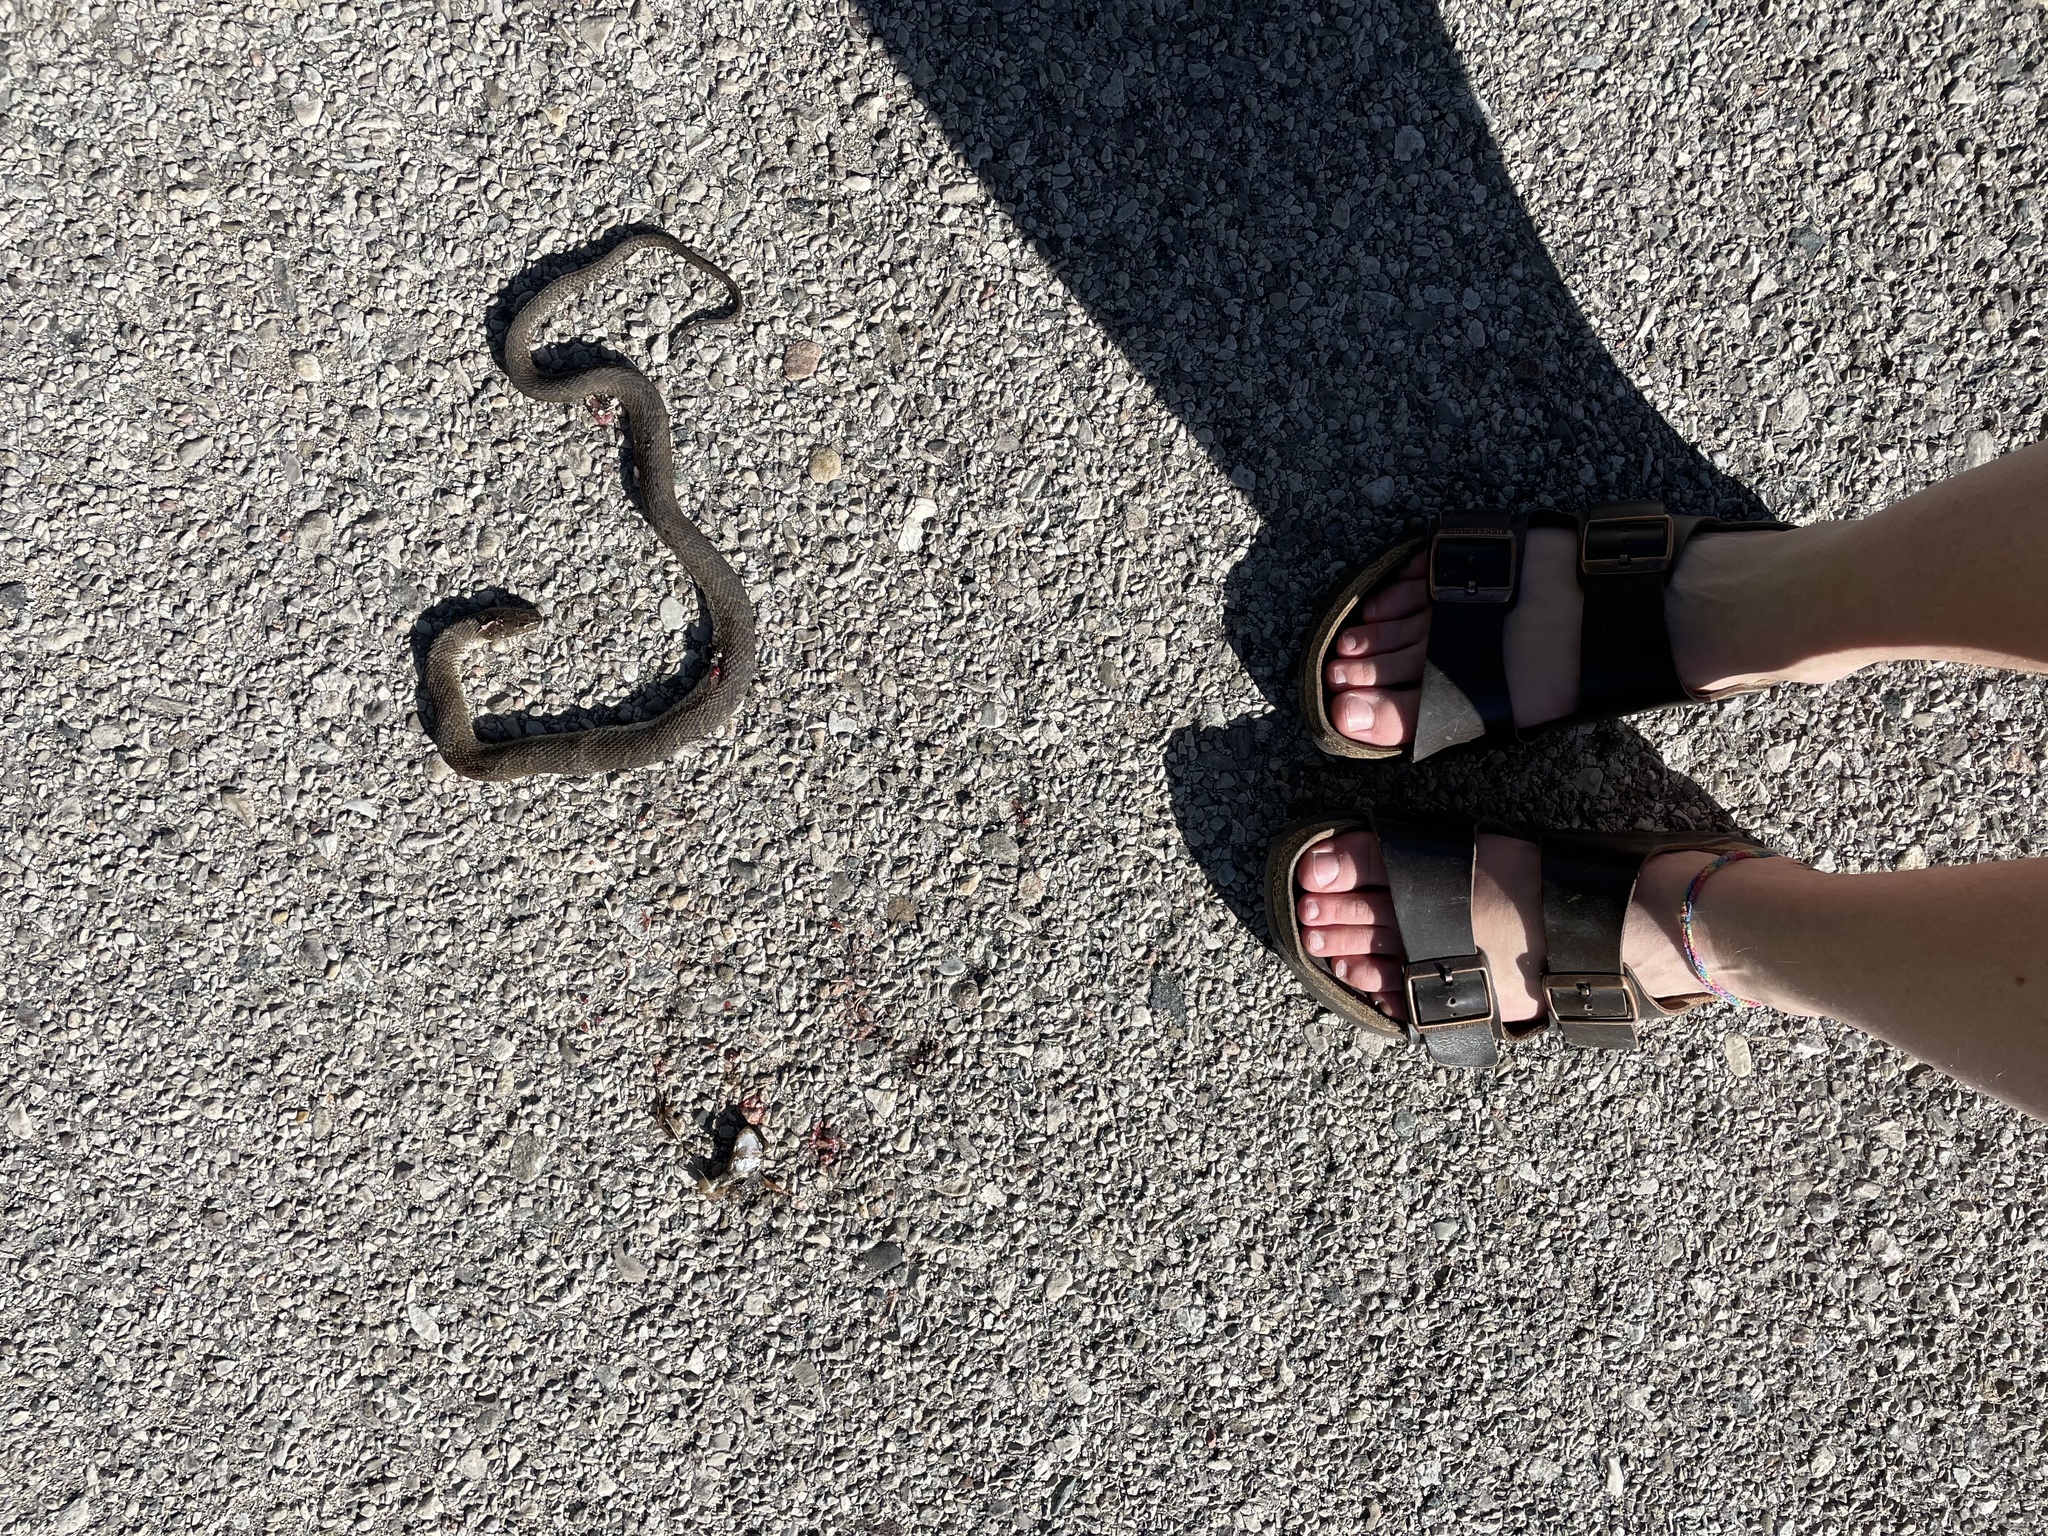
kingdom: Animalia
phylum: Chordata
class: Squamata
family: Colubridae
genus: Nerodia
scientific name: Nerodia sipedon
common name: Northern water snake
